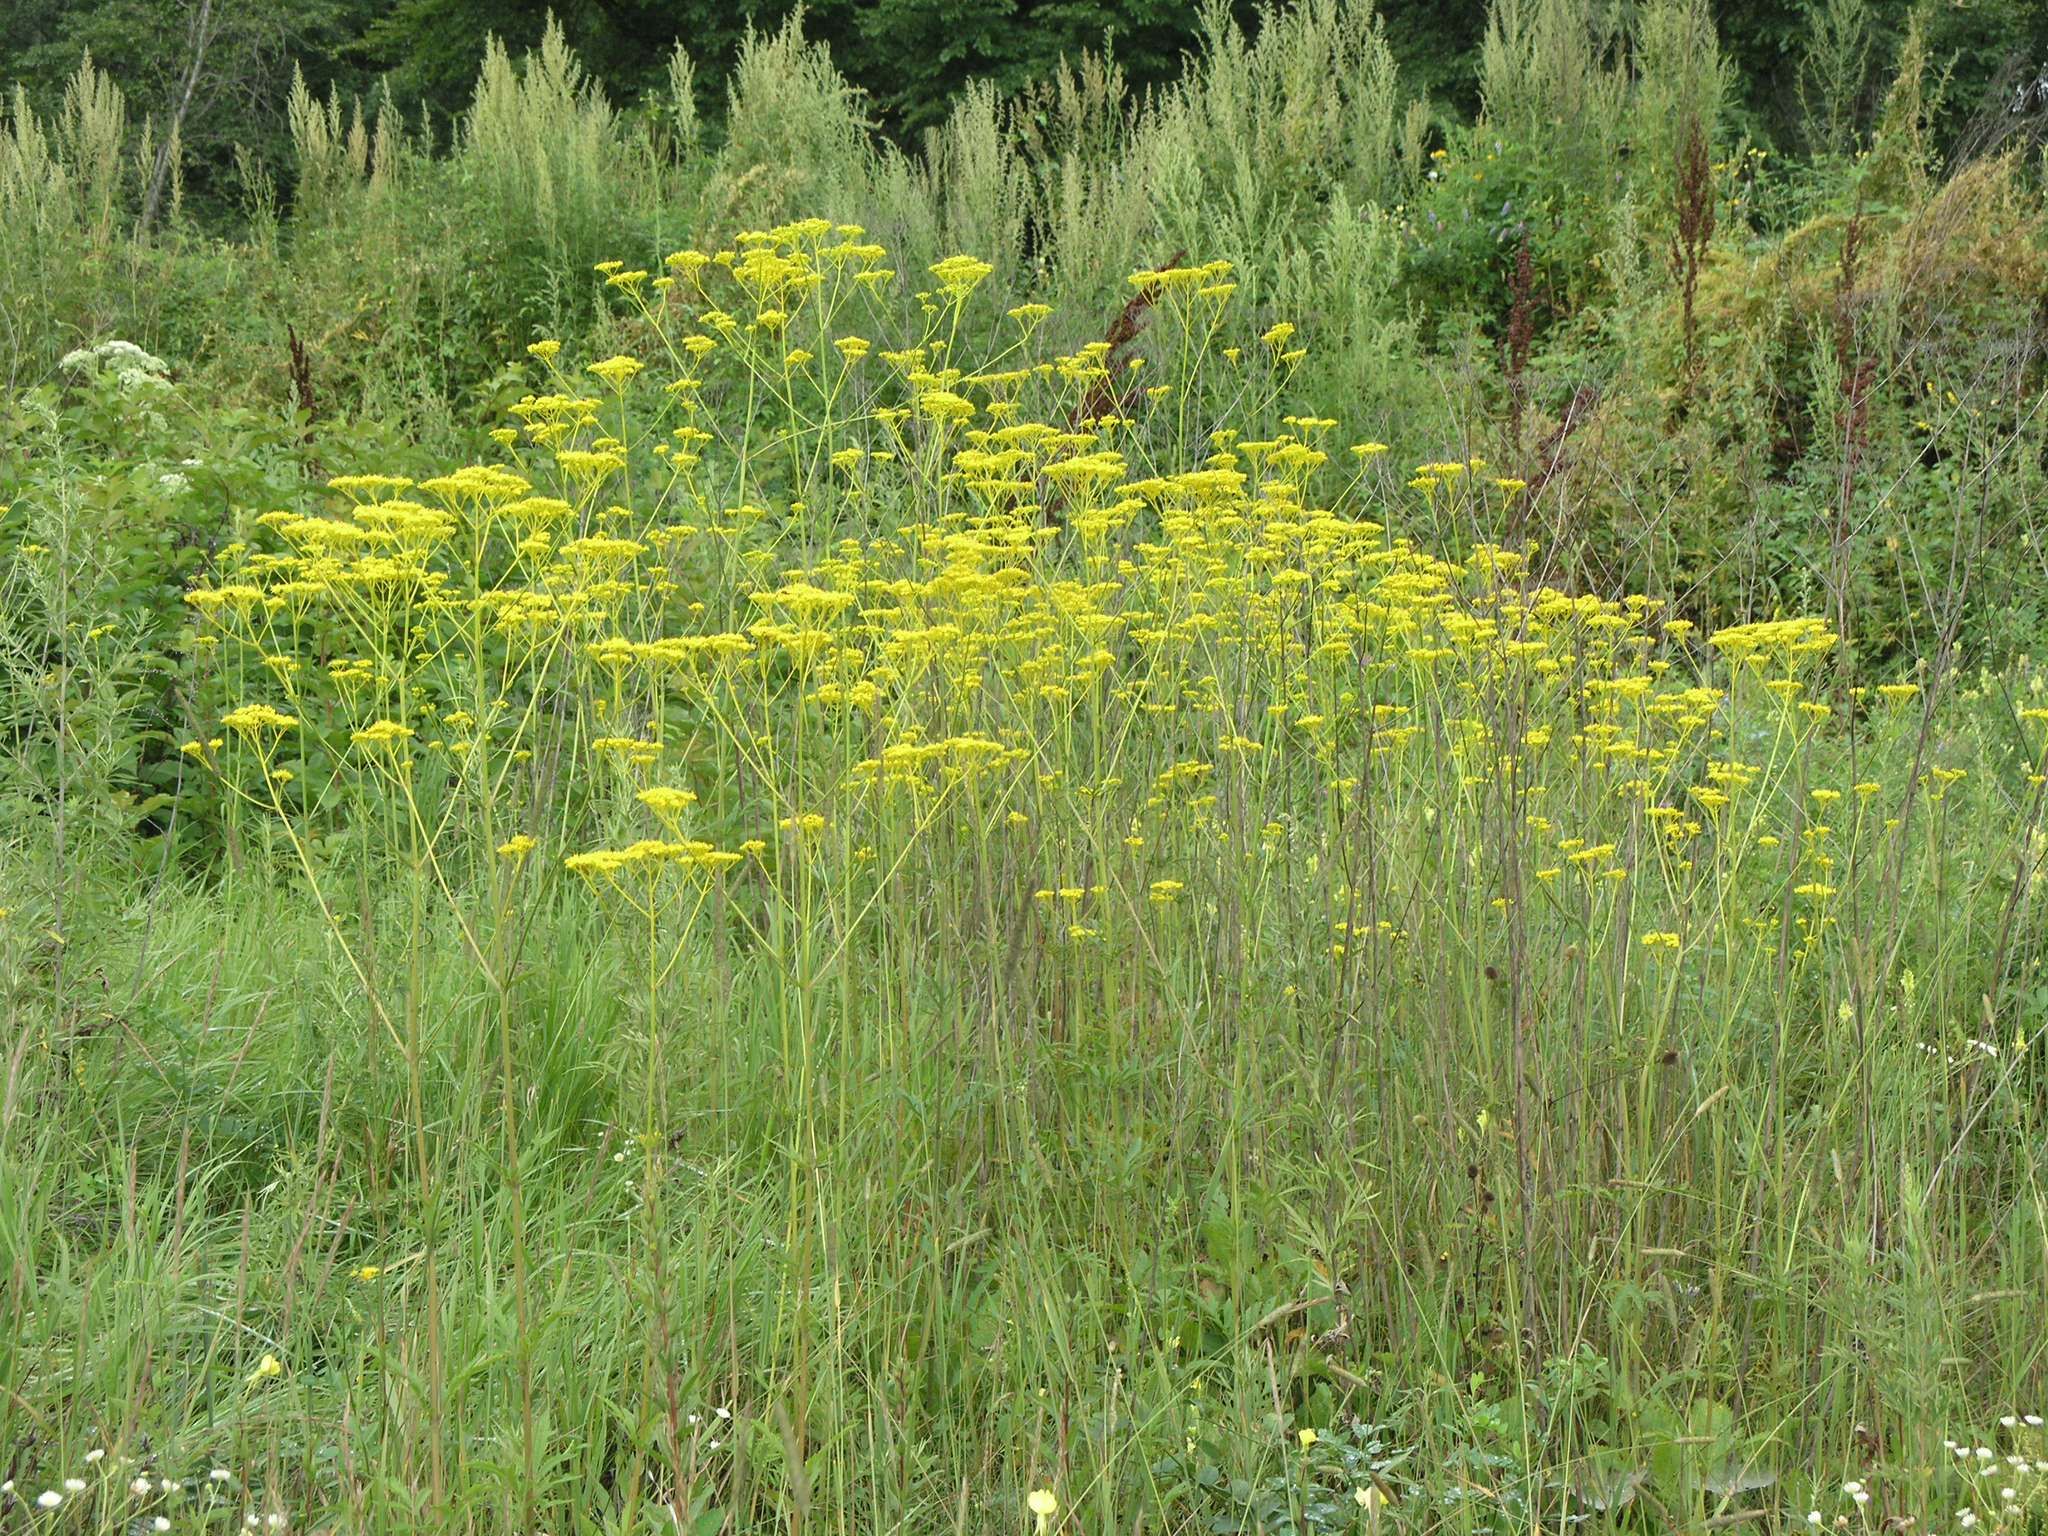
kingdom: Plantae
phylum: Tracheophyta
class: Magnoliopsida
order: Dipsacales
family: Caprifoliaceae
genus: Patrinia
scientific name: Patrinia scabiosifolia
